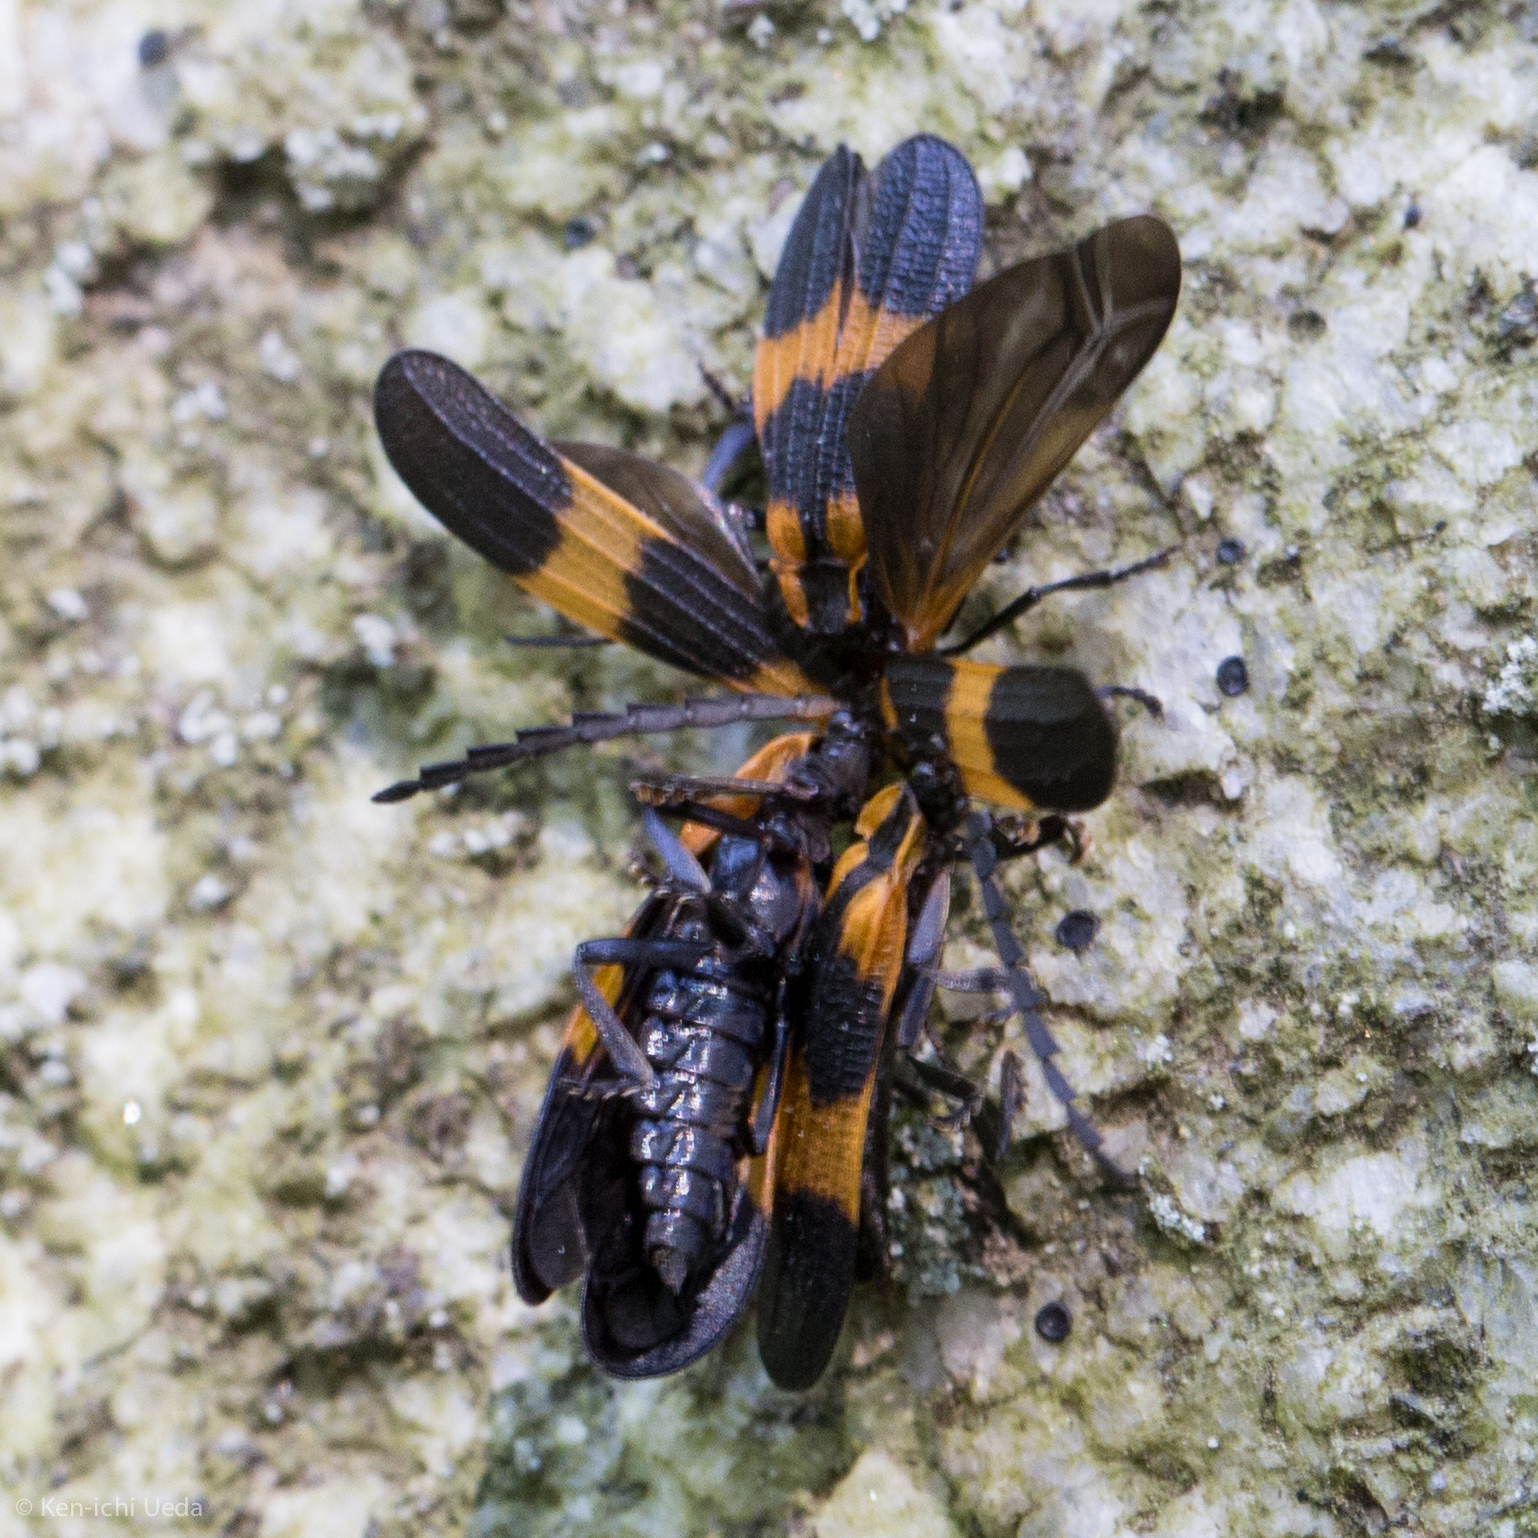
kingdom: Animalia
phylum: Arthropoda
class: Insecta
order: Coleoptera
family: Lycidae
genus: Calopteron
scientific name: Calopteron reticulatum
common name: Banded net-winged beetle
